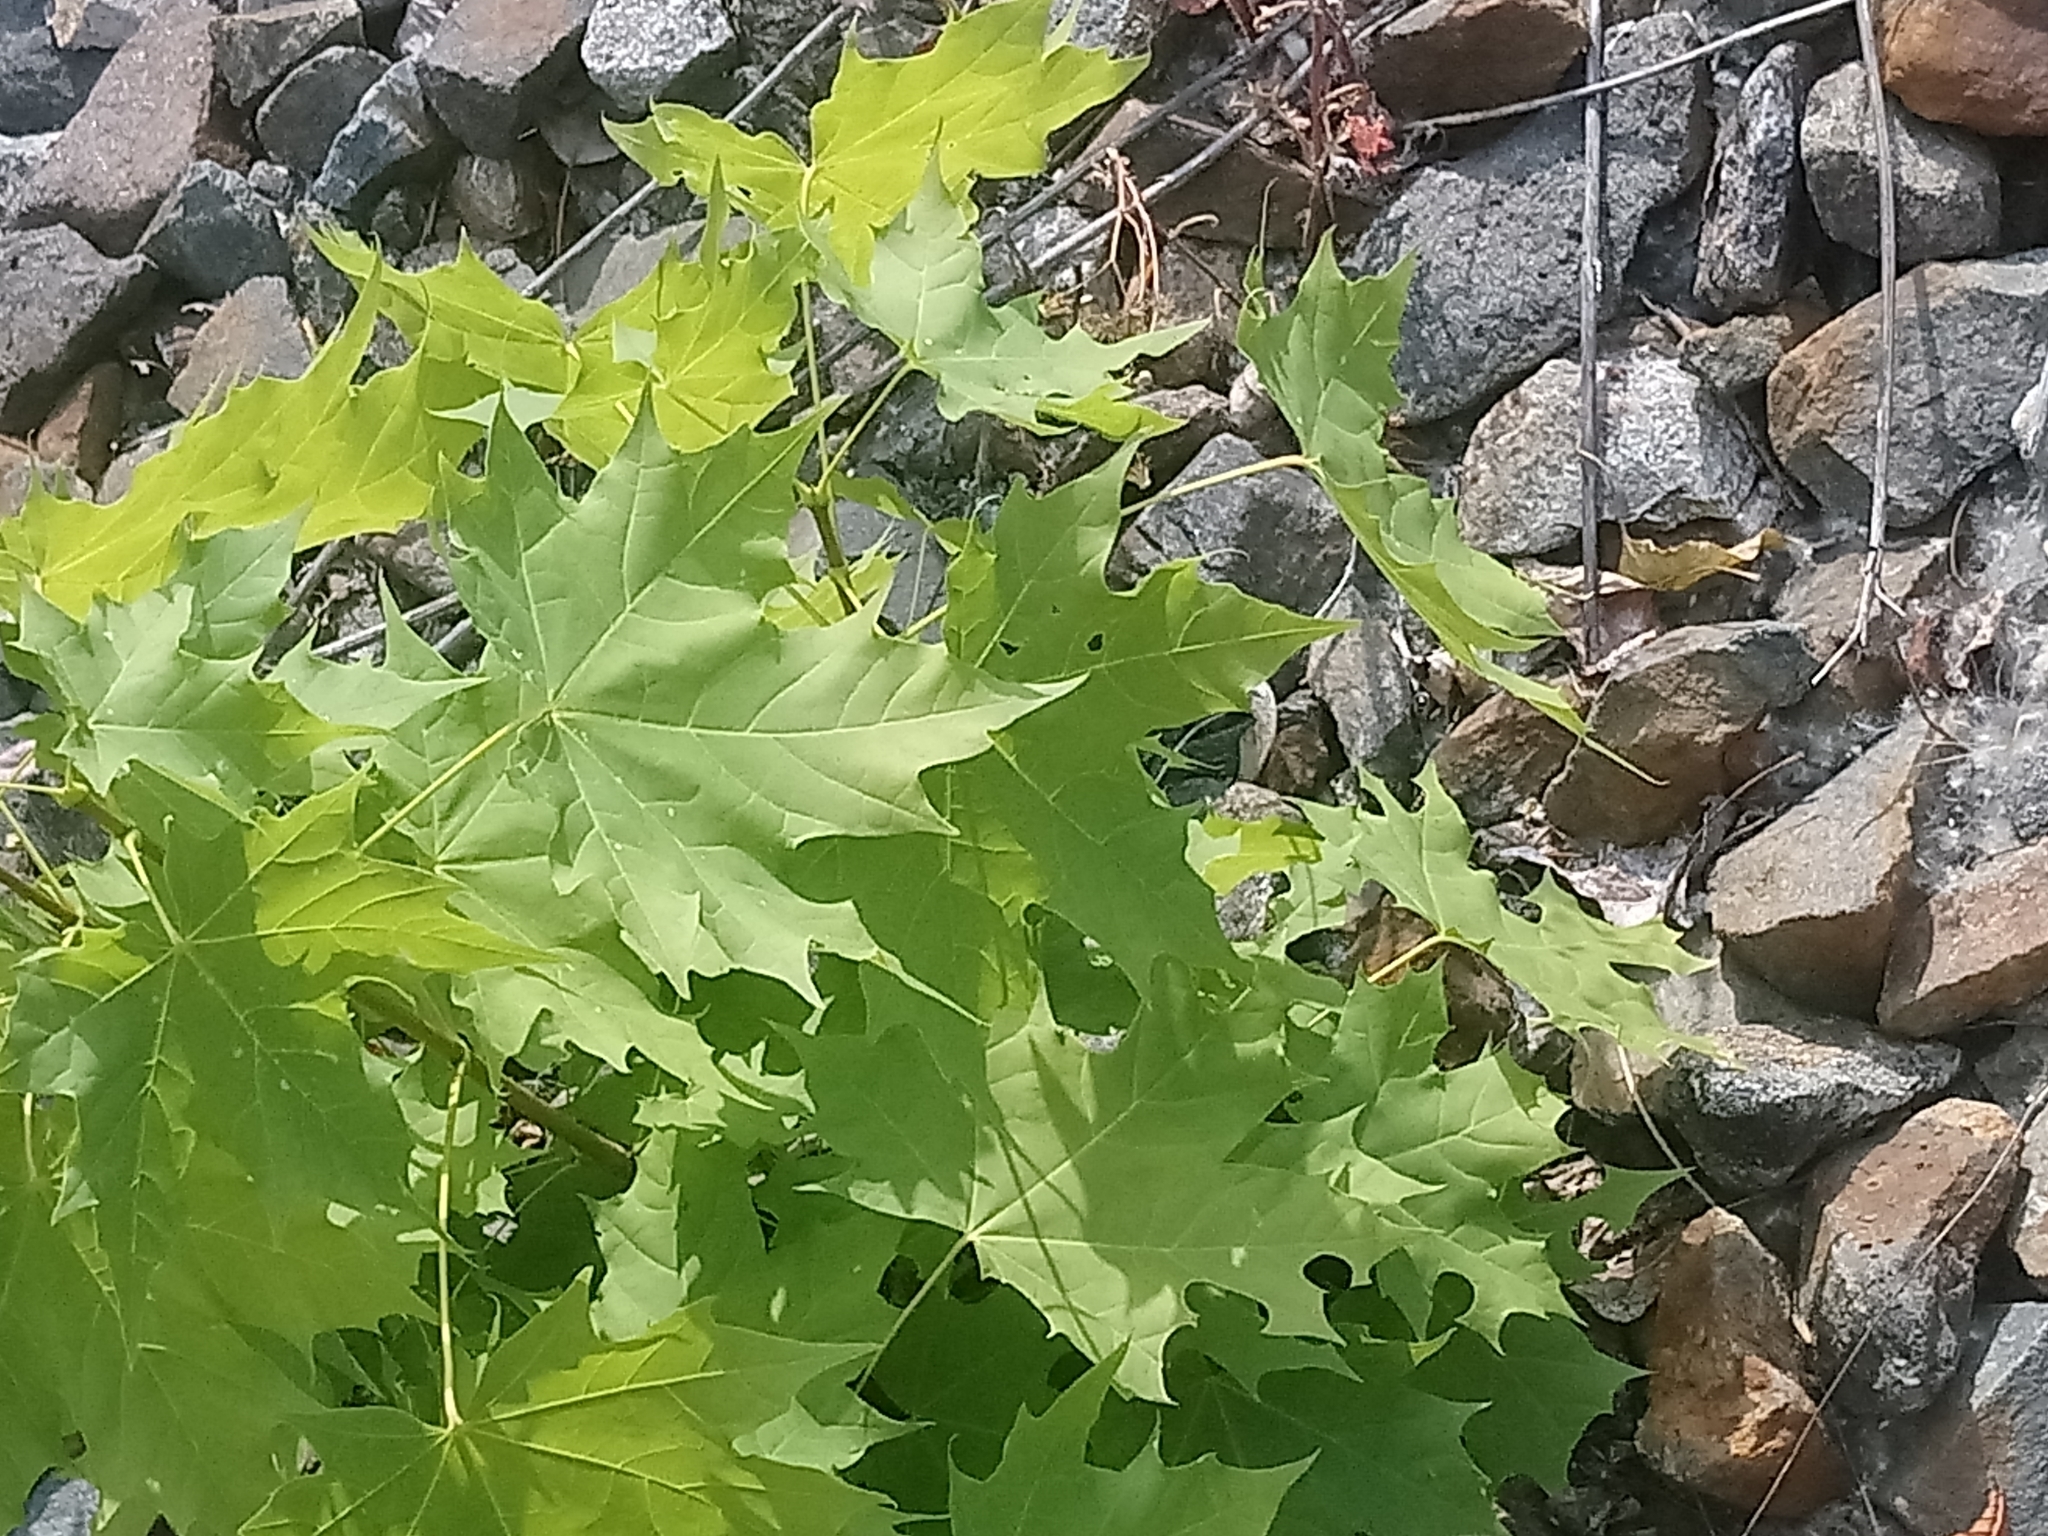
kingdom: Plantae
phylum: Tracheophyta
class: Magnoliopsida
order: Sapindales
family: Sapindaceae
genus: Acer
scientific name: Acer platanoides
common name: Norway maple
